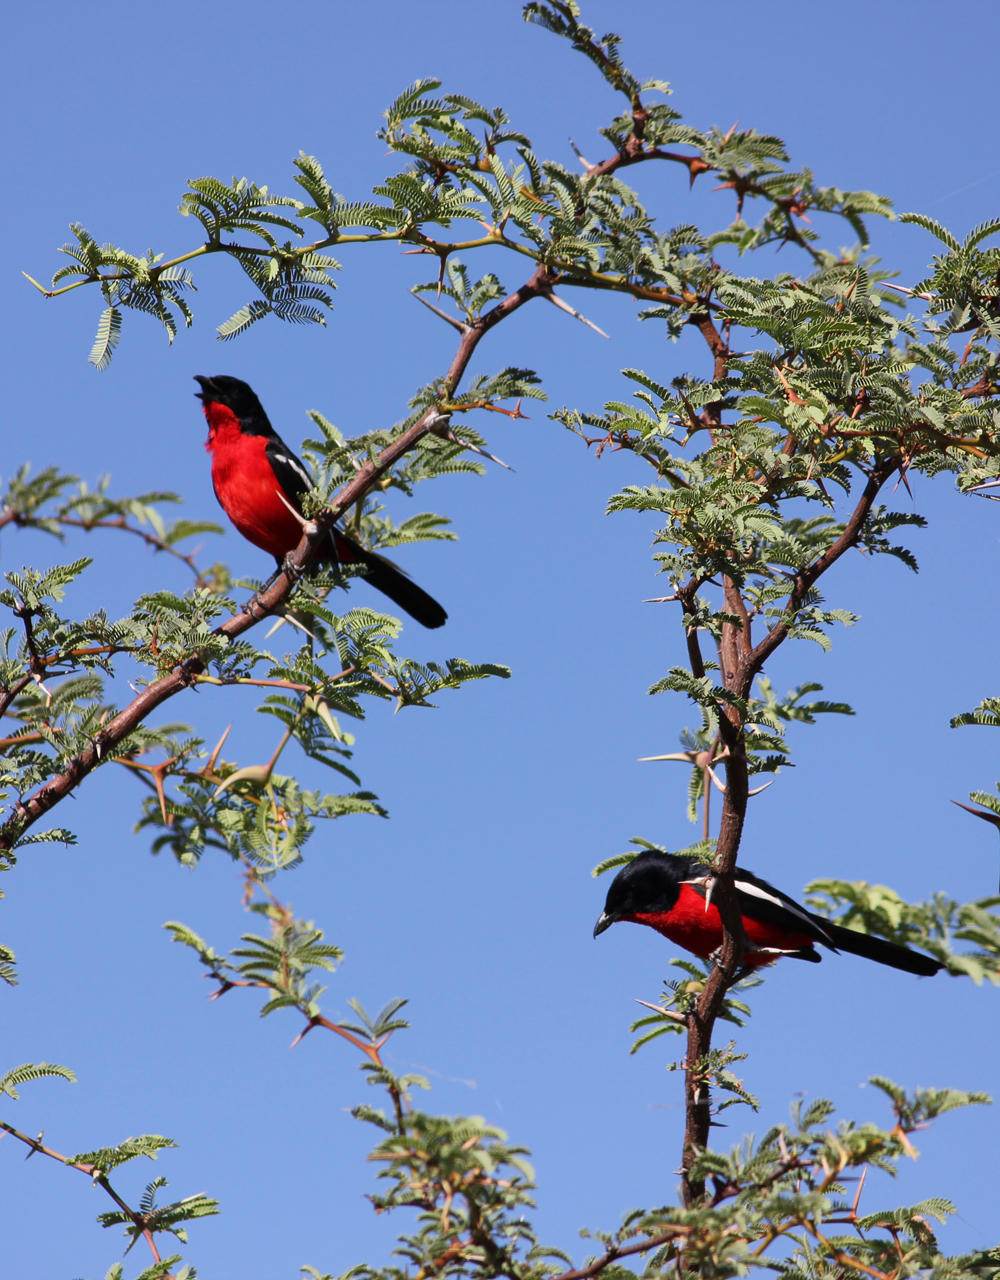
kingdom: Animalia
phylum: Chordata
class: Aves
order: Passeriformes
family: Malaconotidae
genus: Laniarius
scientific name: Laniarius atrococcineus
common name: Crimson-breasted shrike
